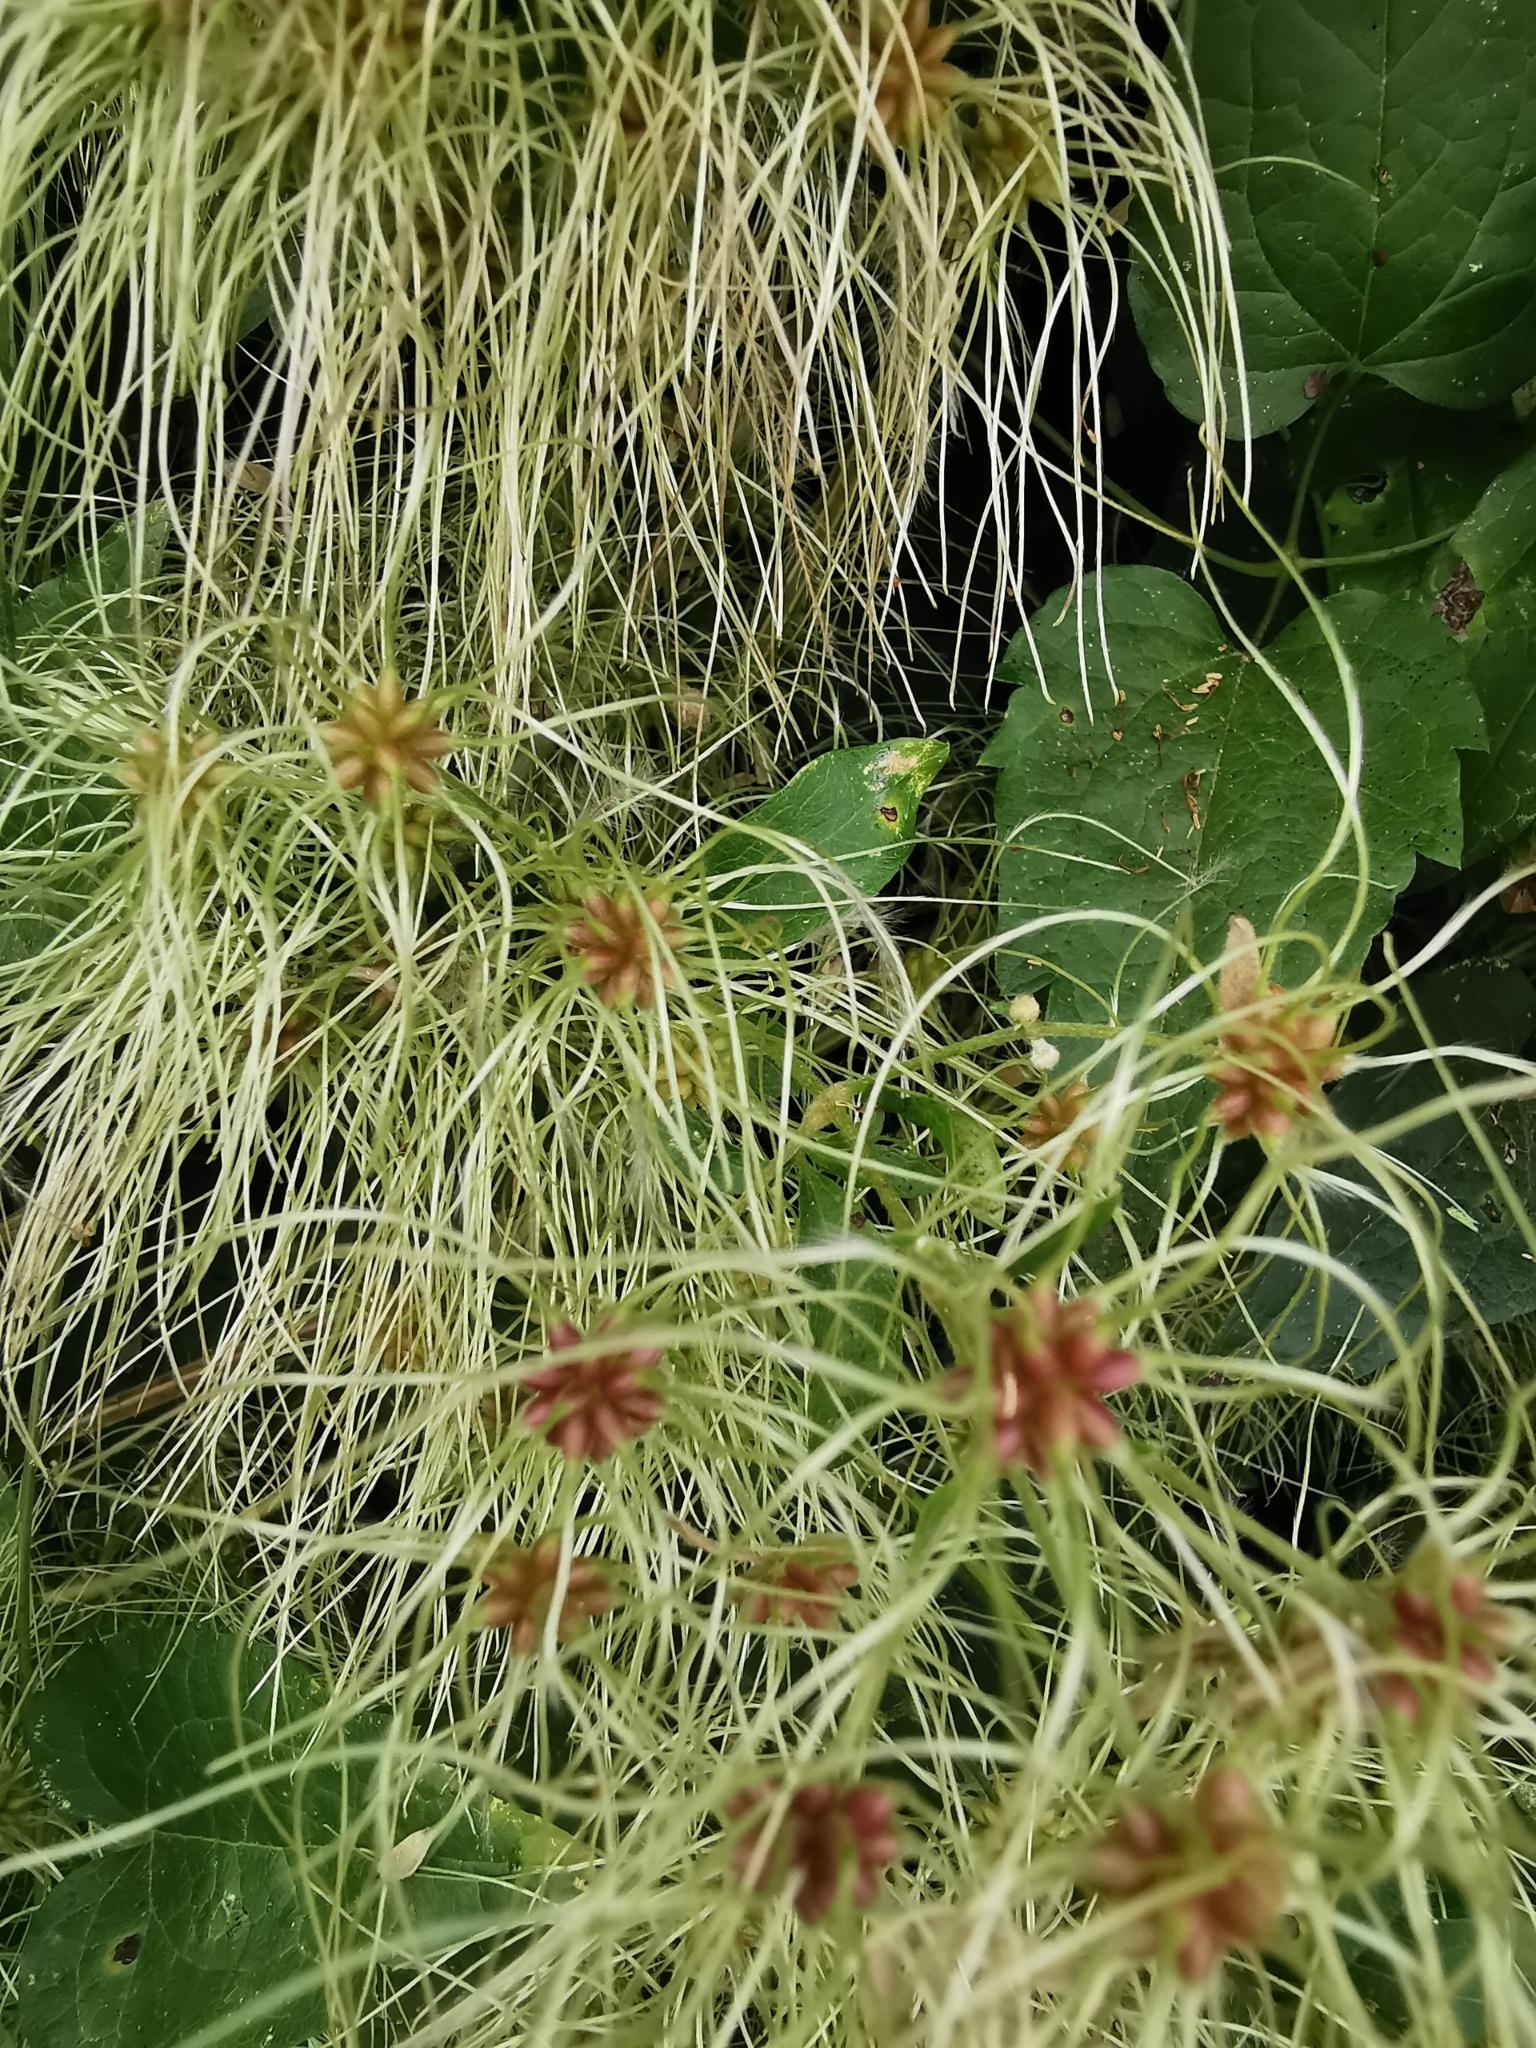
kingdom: Plantae
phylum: Tracheophyta
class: Magnoliopsida
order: Ranunculales
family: Ranunculaceae
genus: Clematis
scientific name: Clematis vitalba
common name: Evergreen clematis
